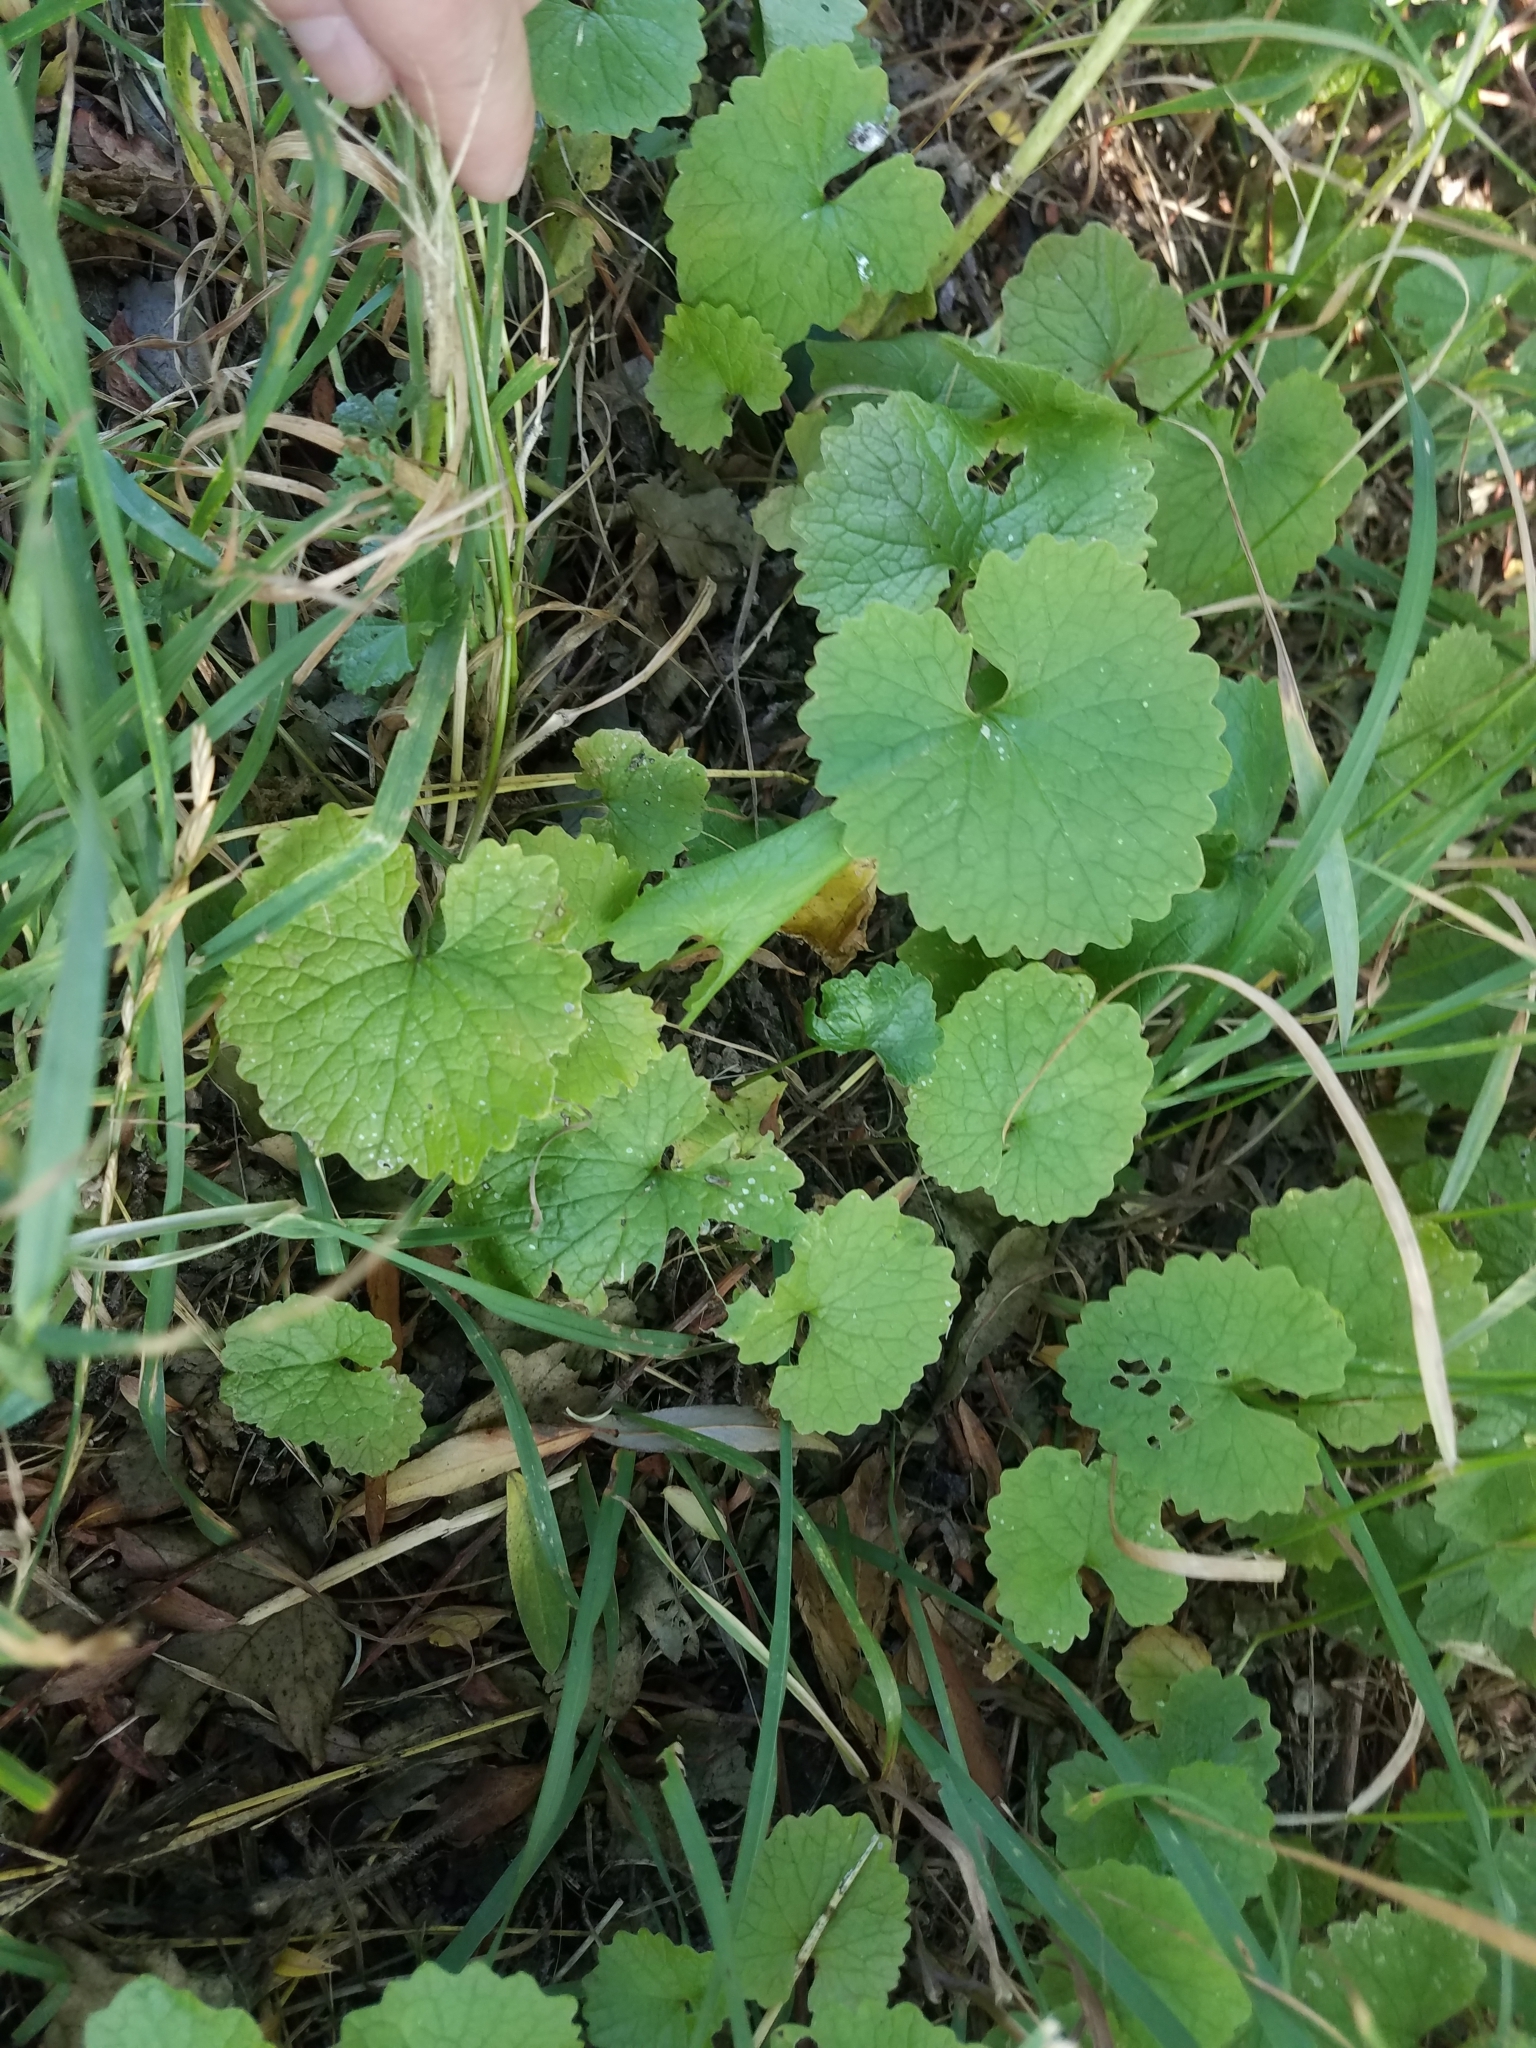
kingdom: Plantae
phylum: Tracheophyta
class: Magnoliopsida
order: Brassicales
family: Brassicaceae
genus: Alliaria
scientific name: Alliaria petiolata
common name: Garlic mustard
